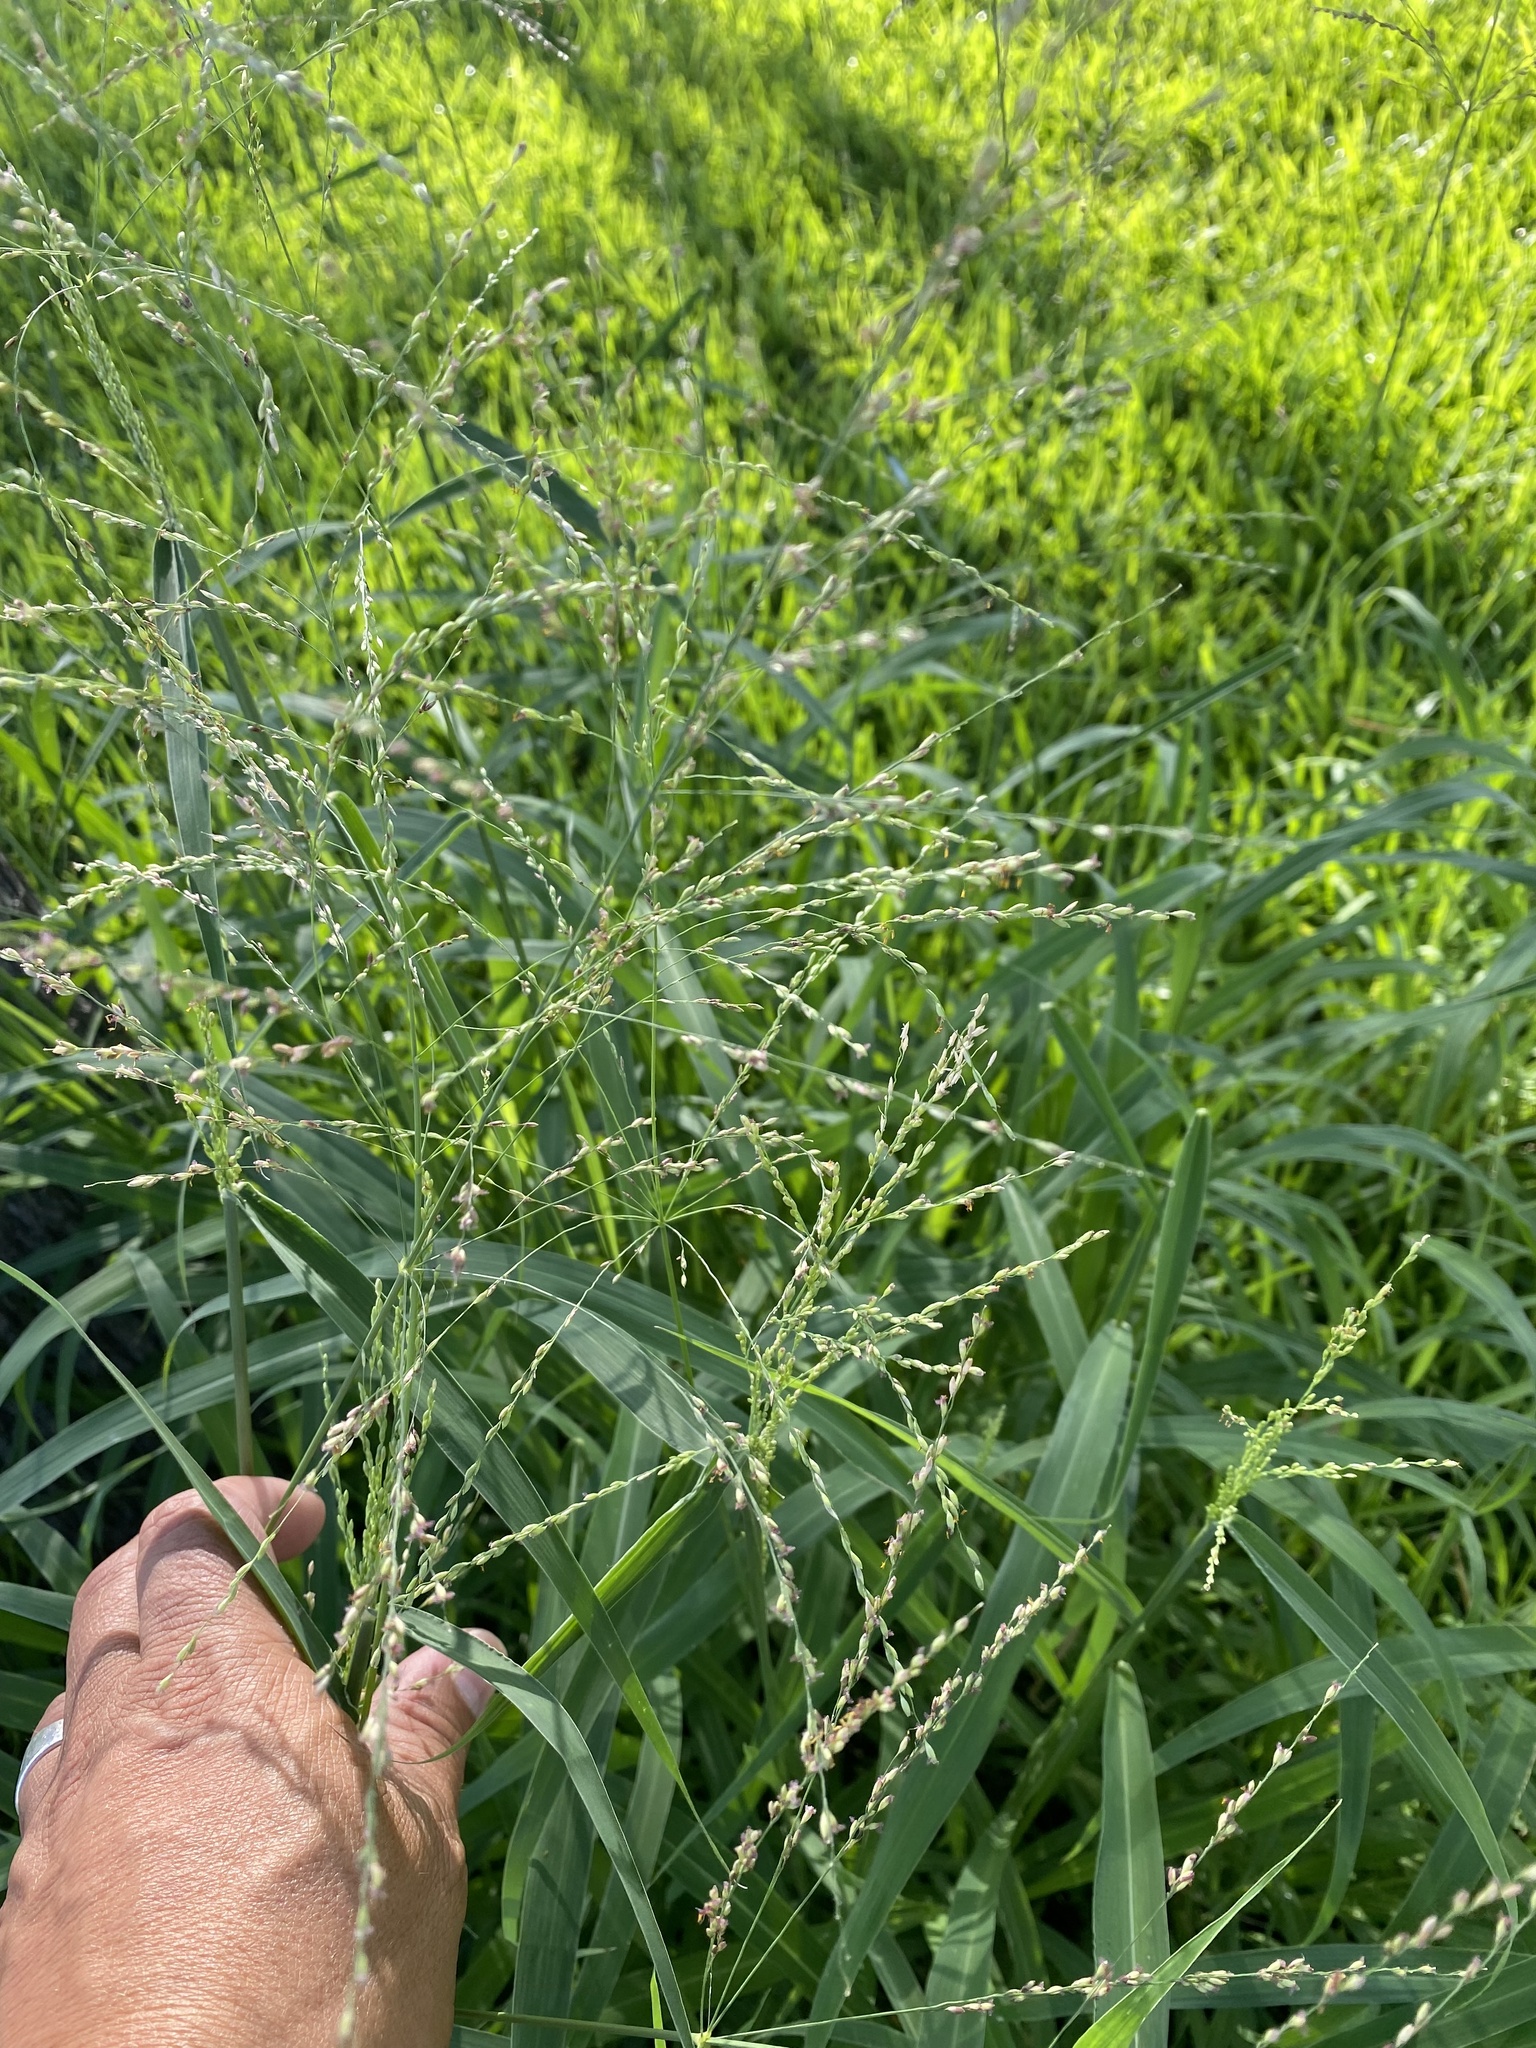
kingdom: Plantae
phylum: Tracheophyta
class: Liliopsida
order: Poales
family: Poaceae
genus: Megathyrsus
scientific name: Megathyrsus maximus
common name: Guineagrass
